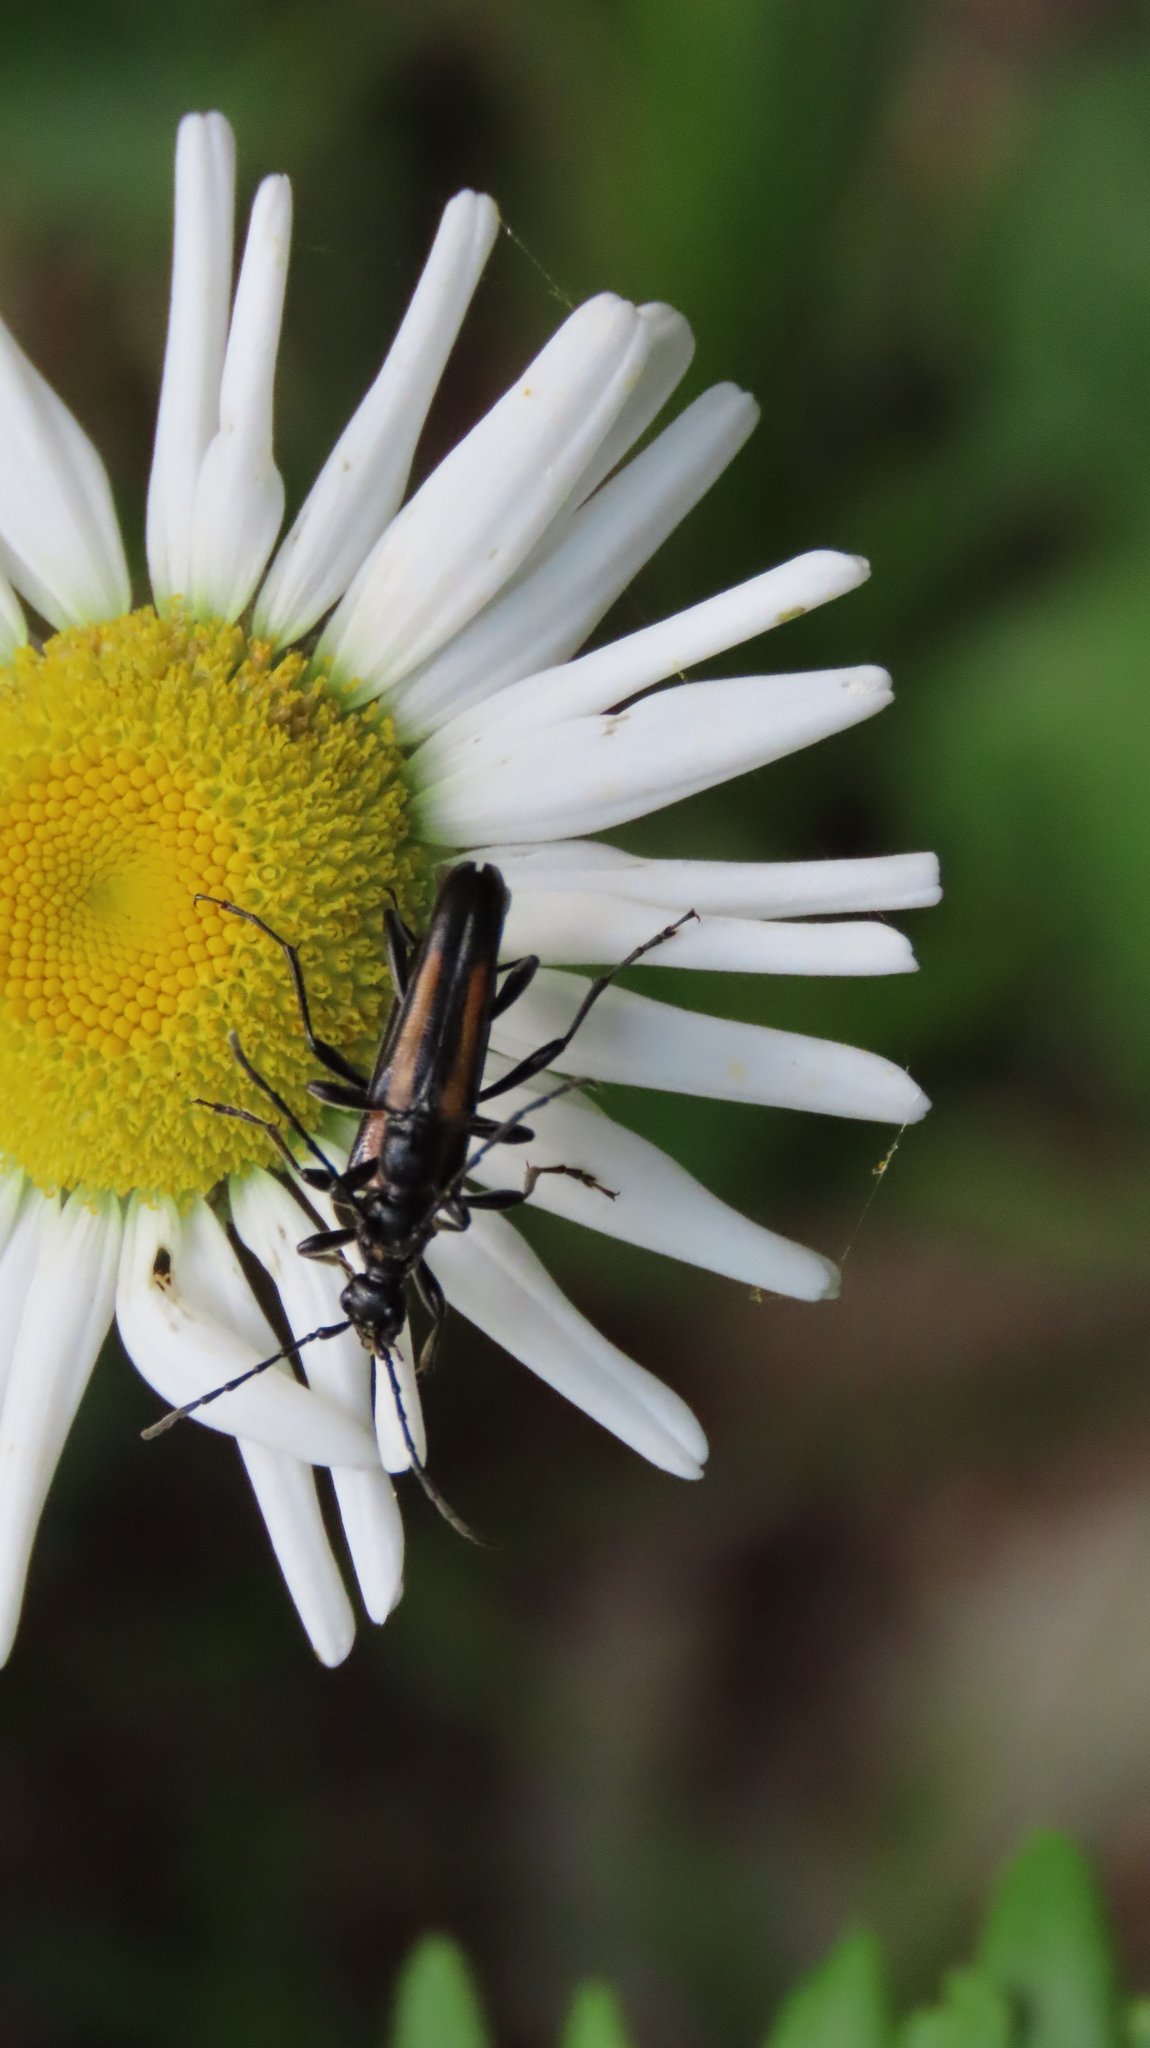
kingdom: Animalia
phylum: Arthropoda
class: Insecta
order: Coleoptera
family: Cerambycidae
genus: Strangalepta
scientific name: Strangalepta abbreviata
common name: Strangalepta flower longhorn beetle
